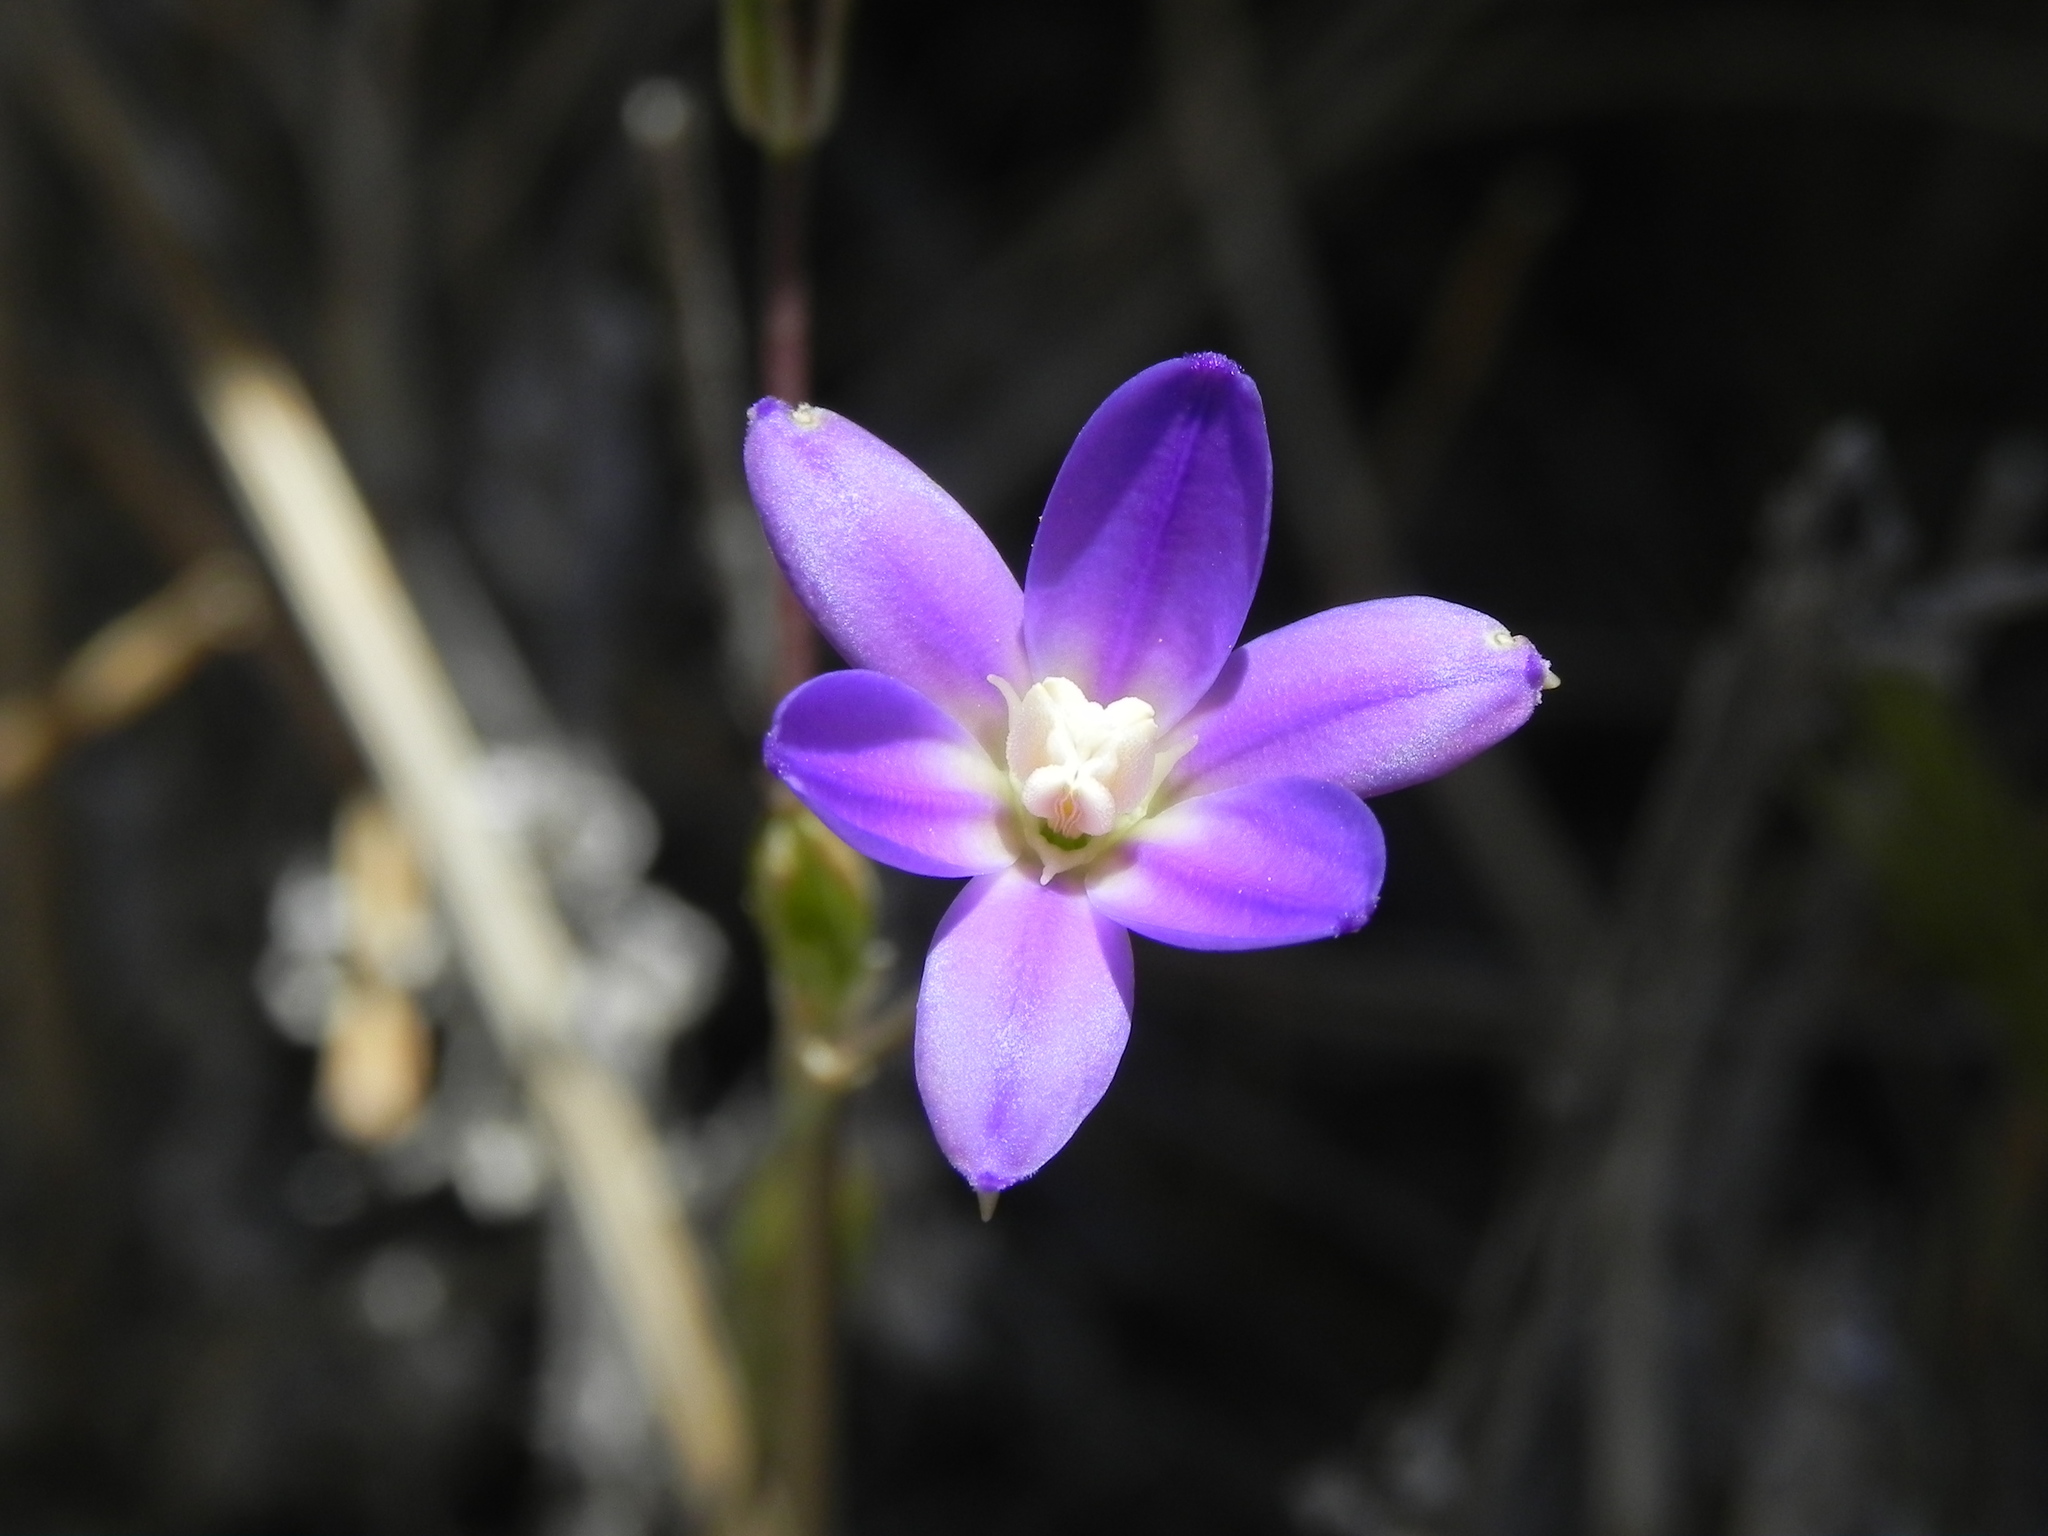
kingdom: Plantae
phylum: Tracheophyta
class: Liliopsida
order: Asparagales
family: Asparagaceae
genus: Brodiaea
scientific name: Brodiaea filifolia
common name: Threadleaf brodiaea
